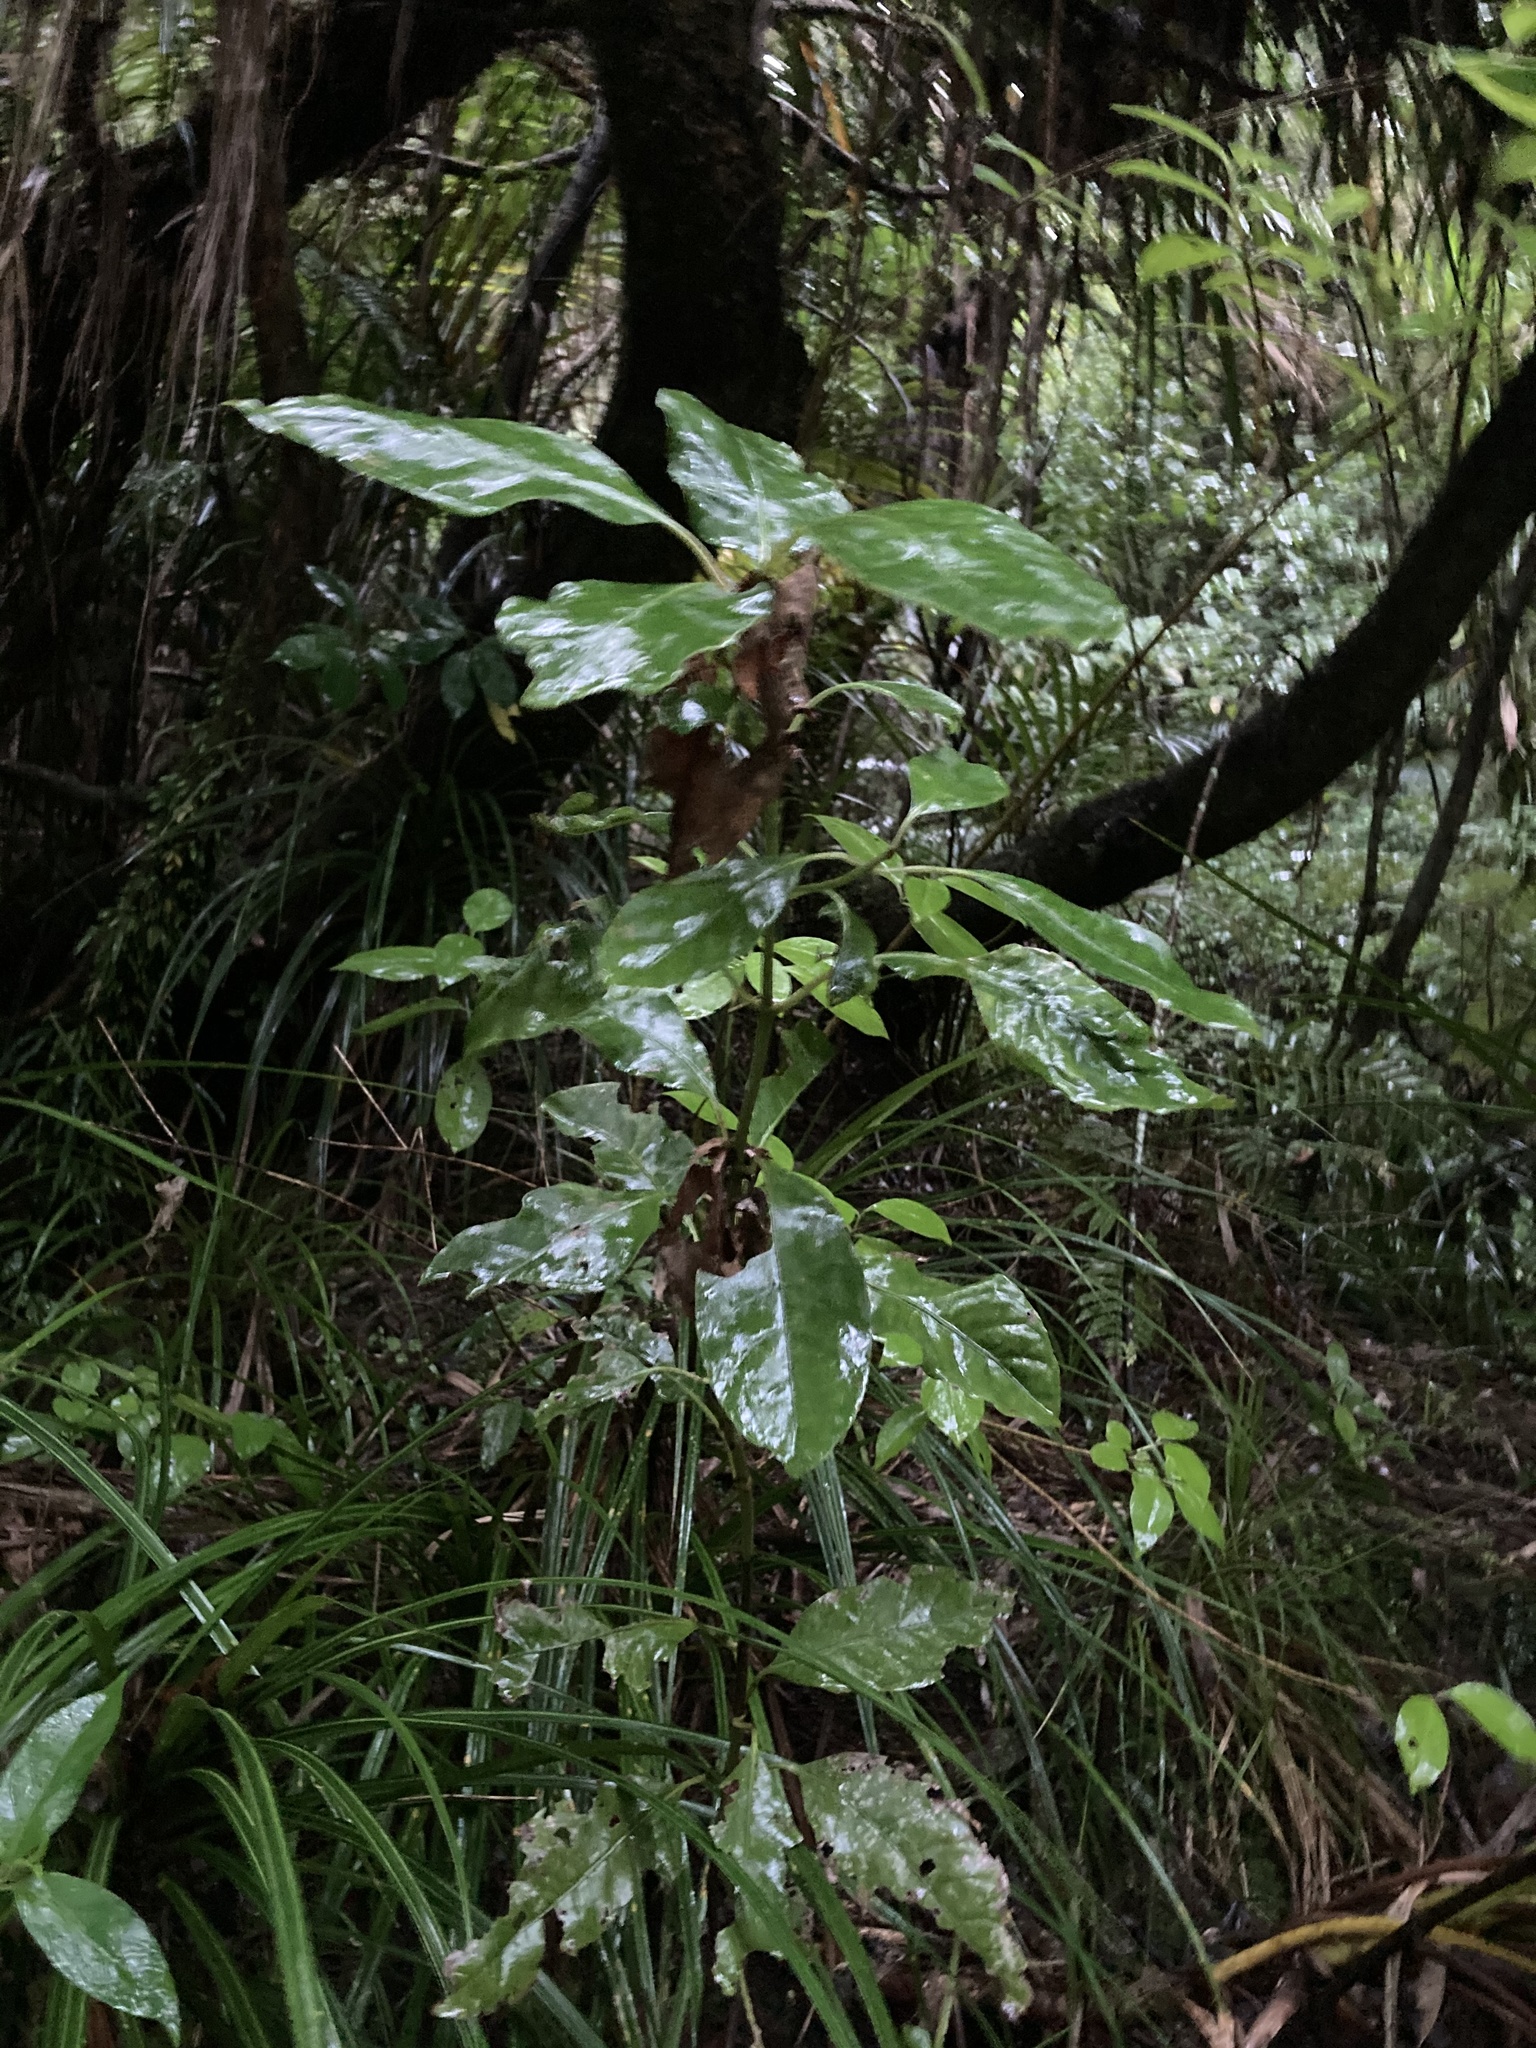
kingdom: Plantae
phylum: Tracheophyta
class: Magnoliopsida
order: Gentianales
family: Rubiaceae
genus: Coprosma
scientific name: Coprosma autumnalis
